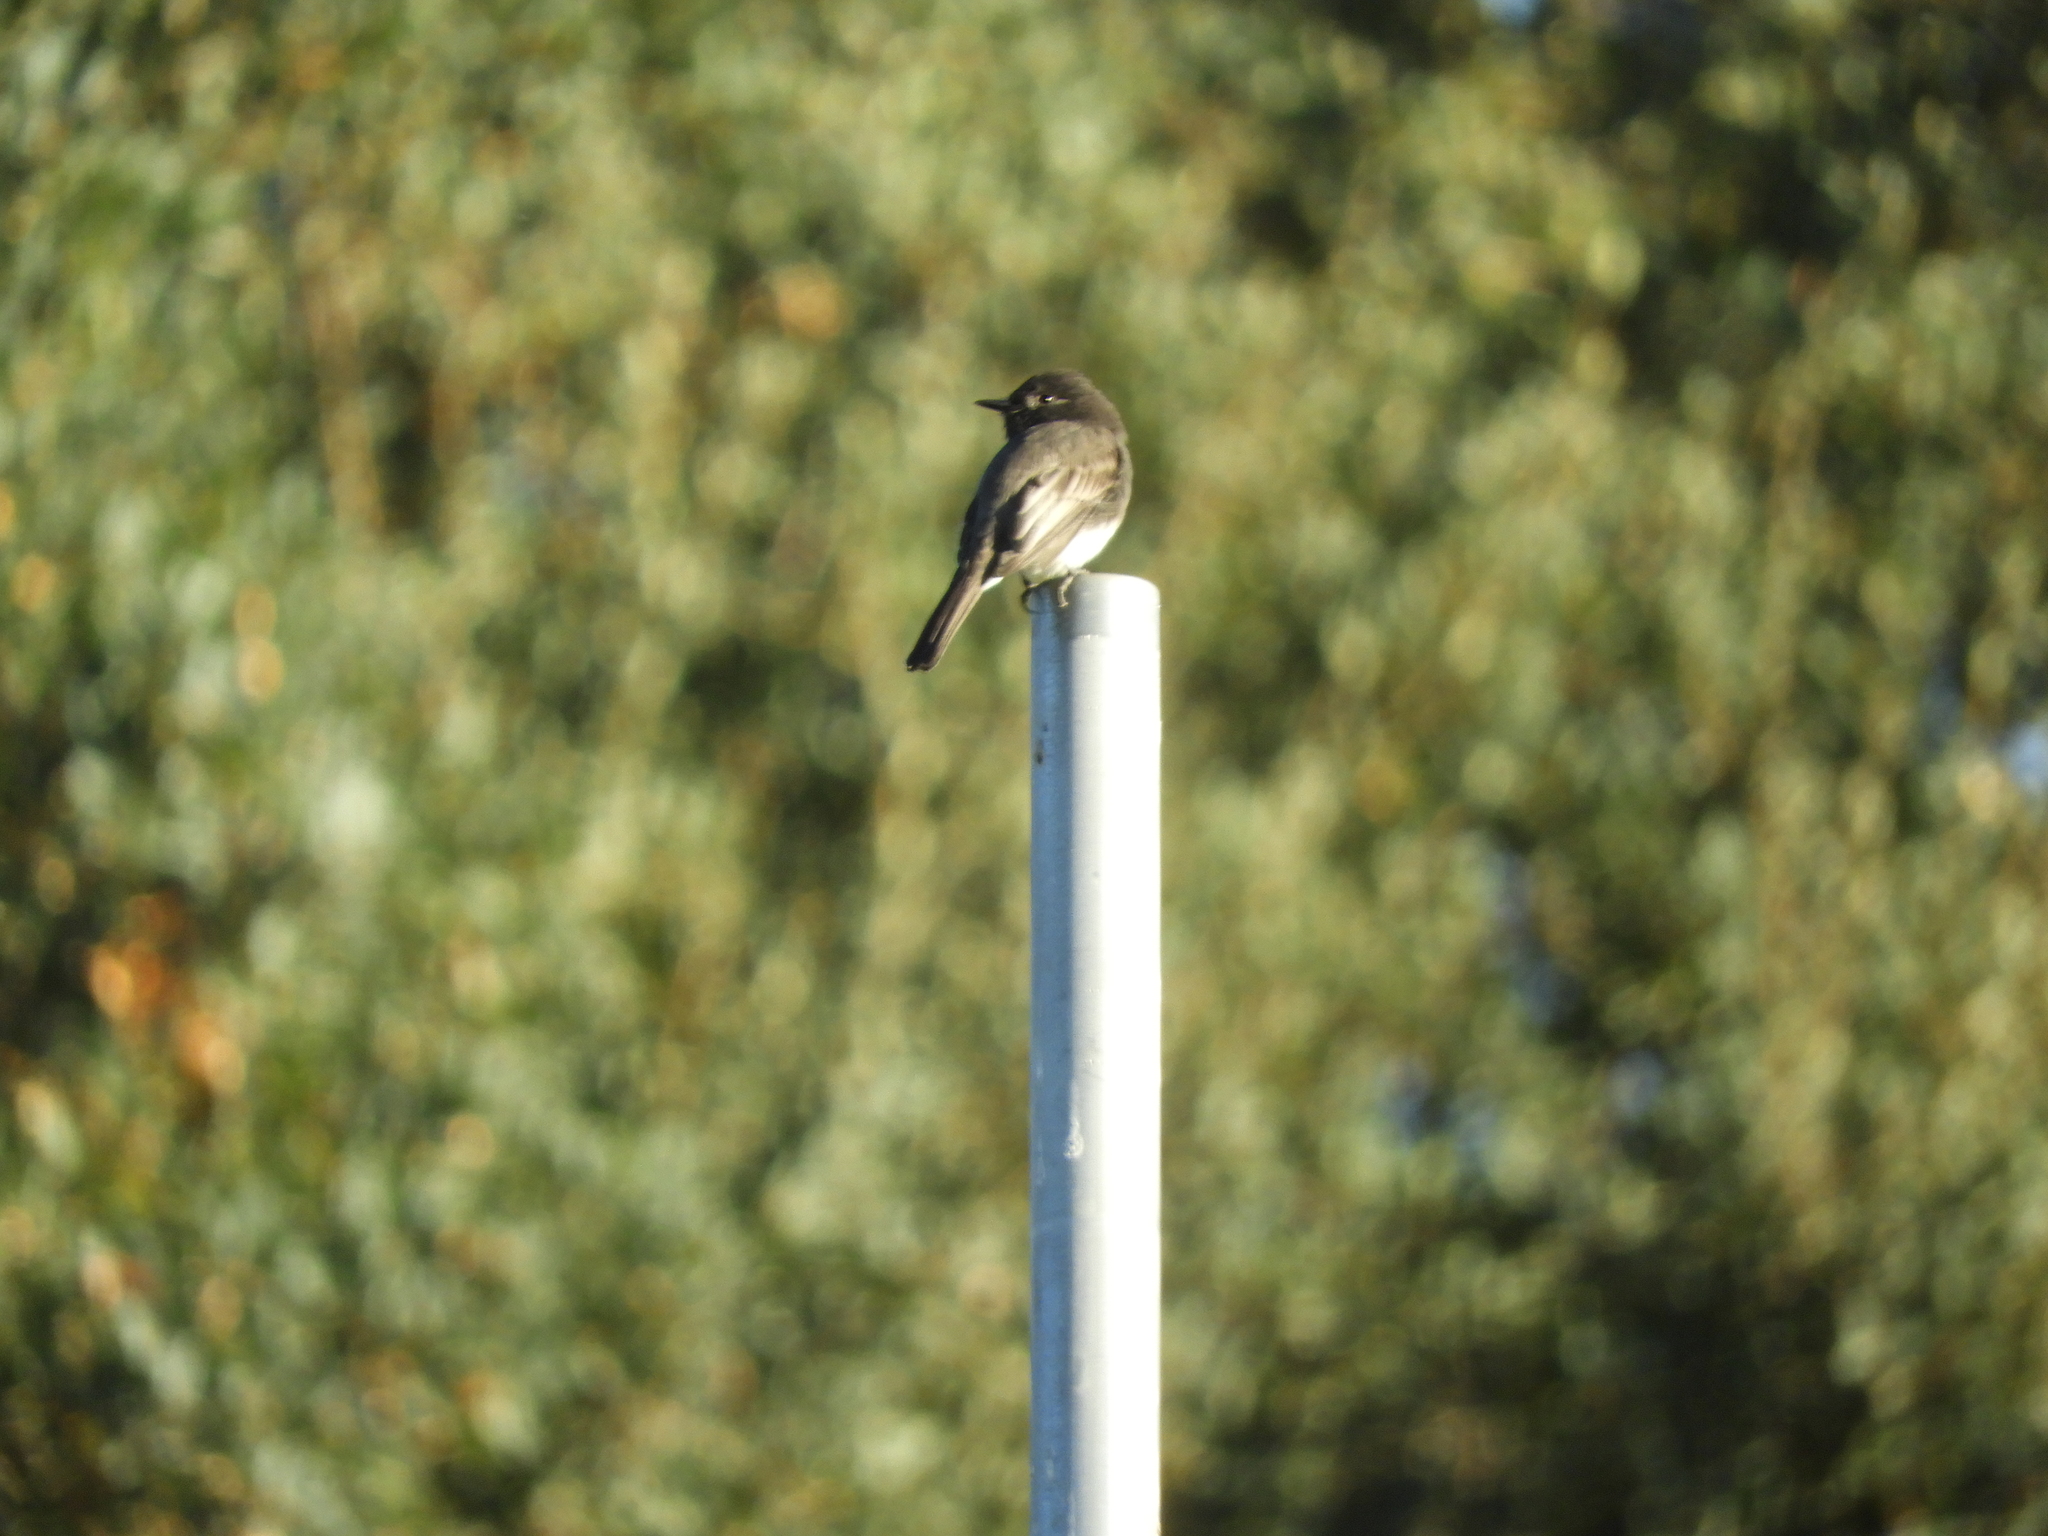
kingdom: Animalia
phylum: Chordata
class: Aves
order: Passeriformes
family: Tyrannidae
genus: Sayornis
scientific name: Sayornis nigricans
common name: Black phoebe
